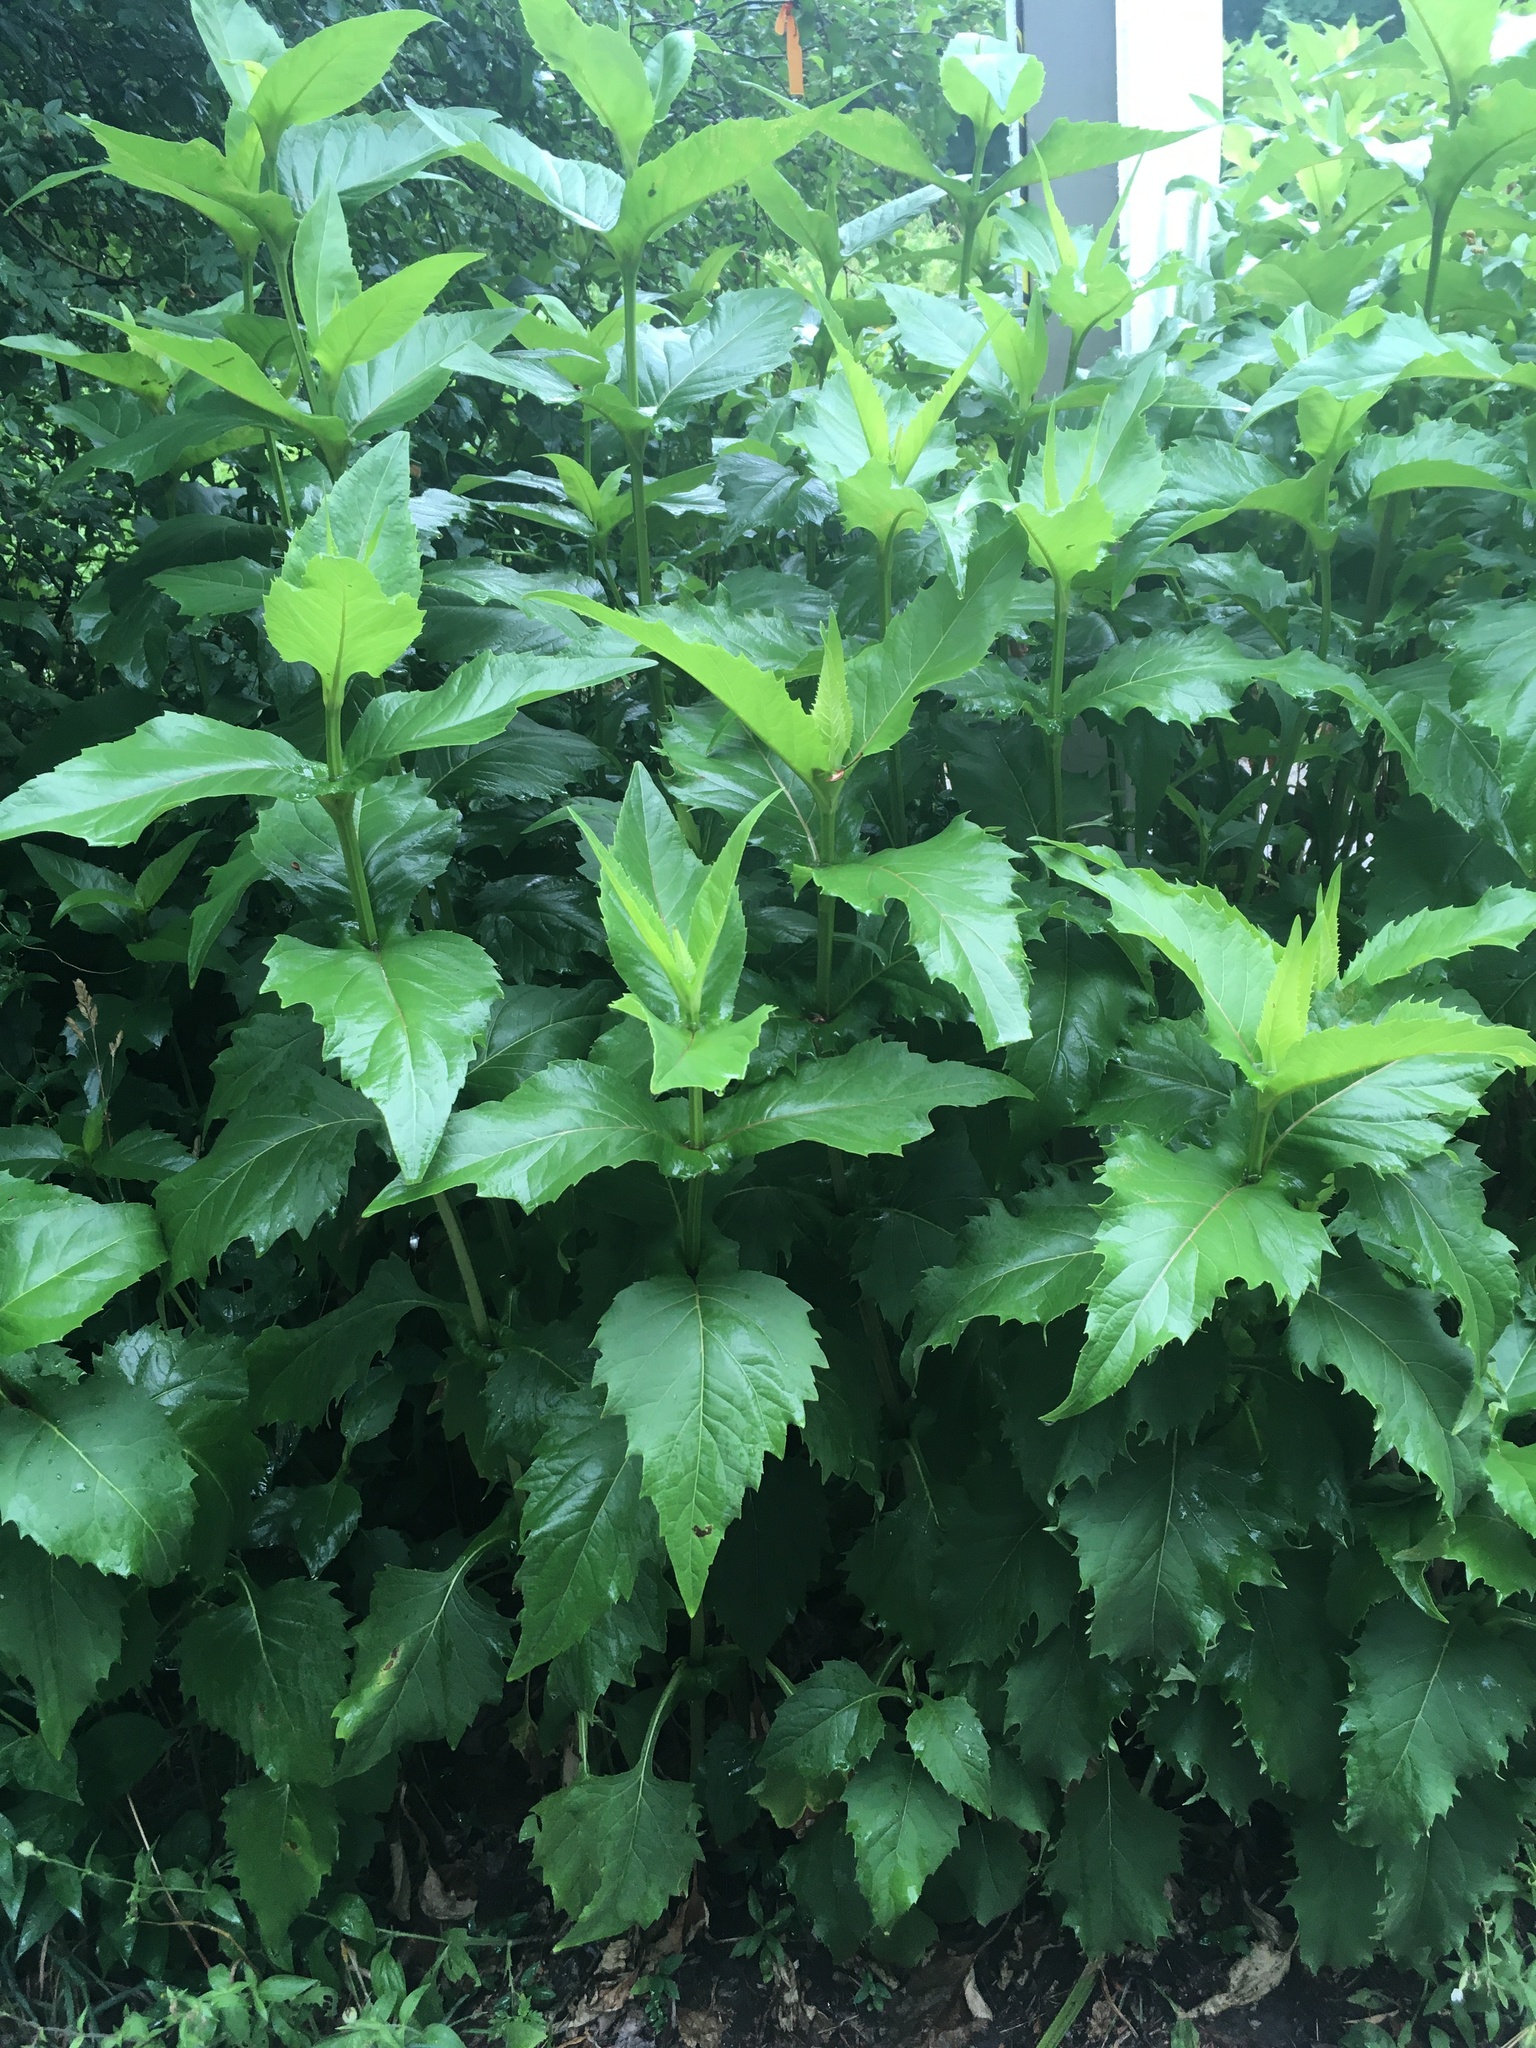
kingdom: Plantae
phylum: Tracheophyta
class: Magnoliopsida
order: Asterales
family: Asteraceae
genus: Silphium
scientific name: Silphium perfoliatum
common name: Cup-plant
